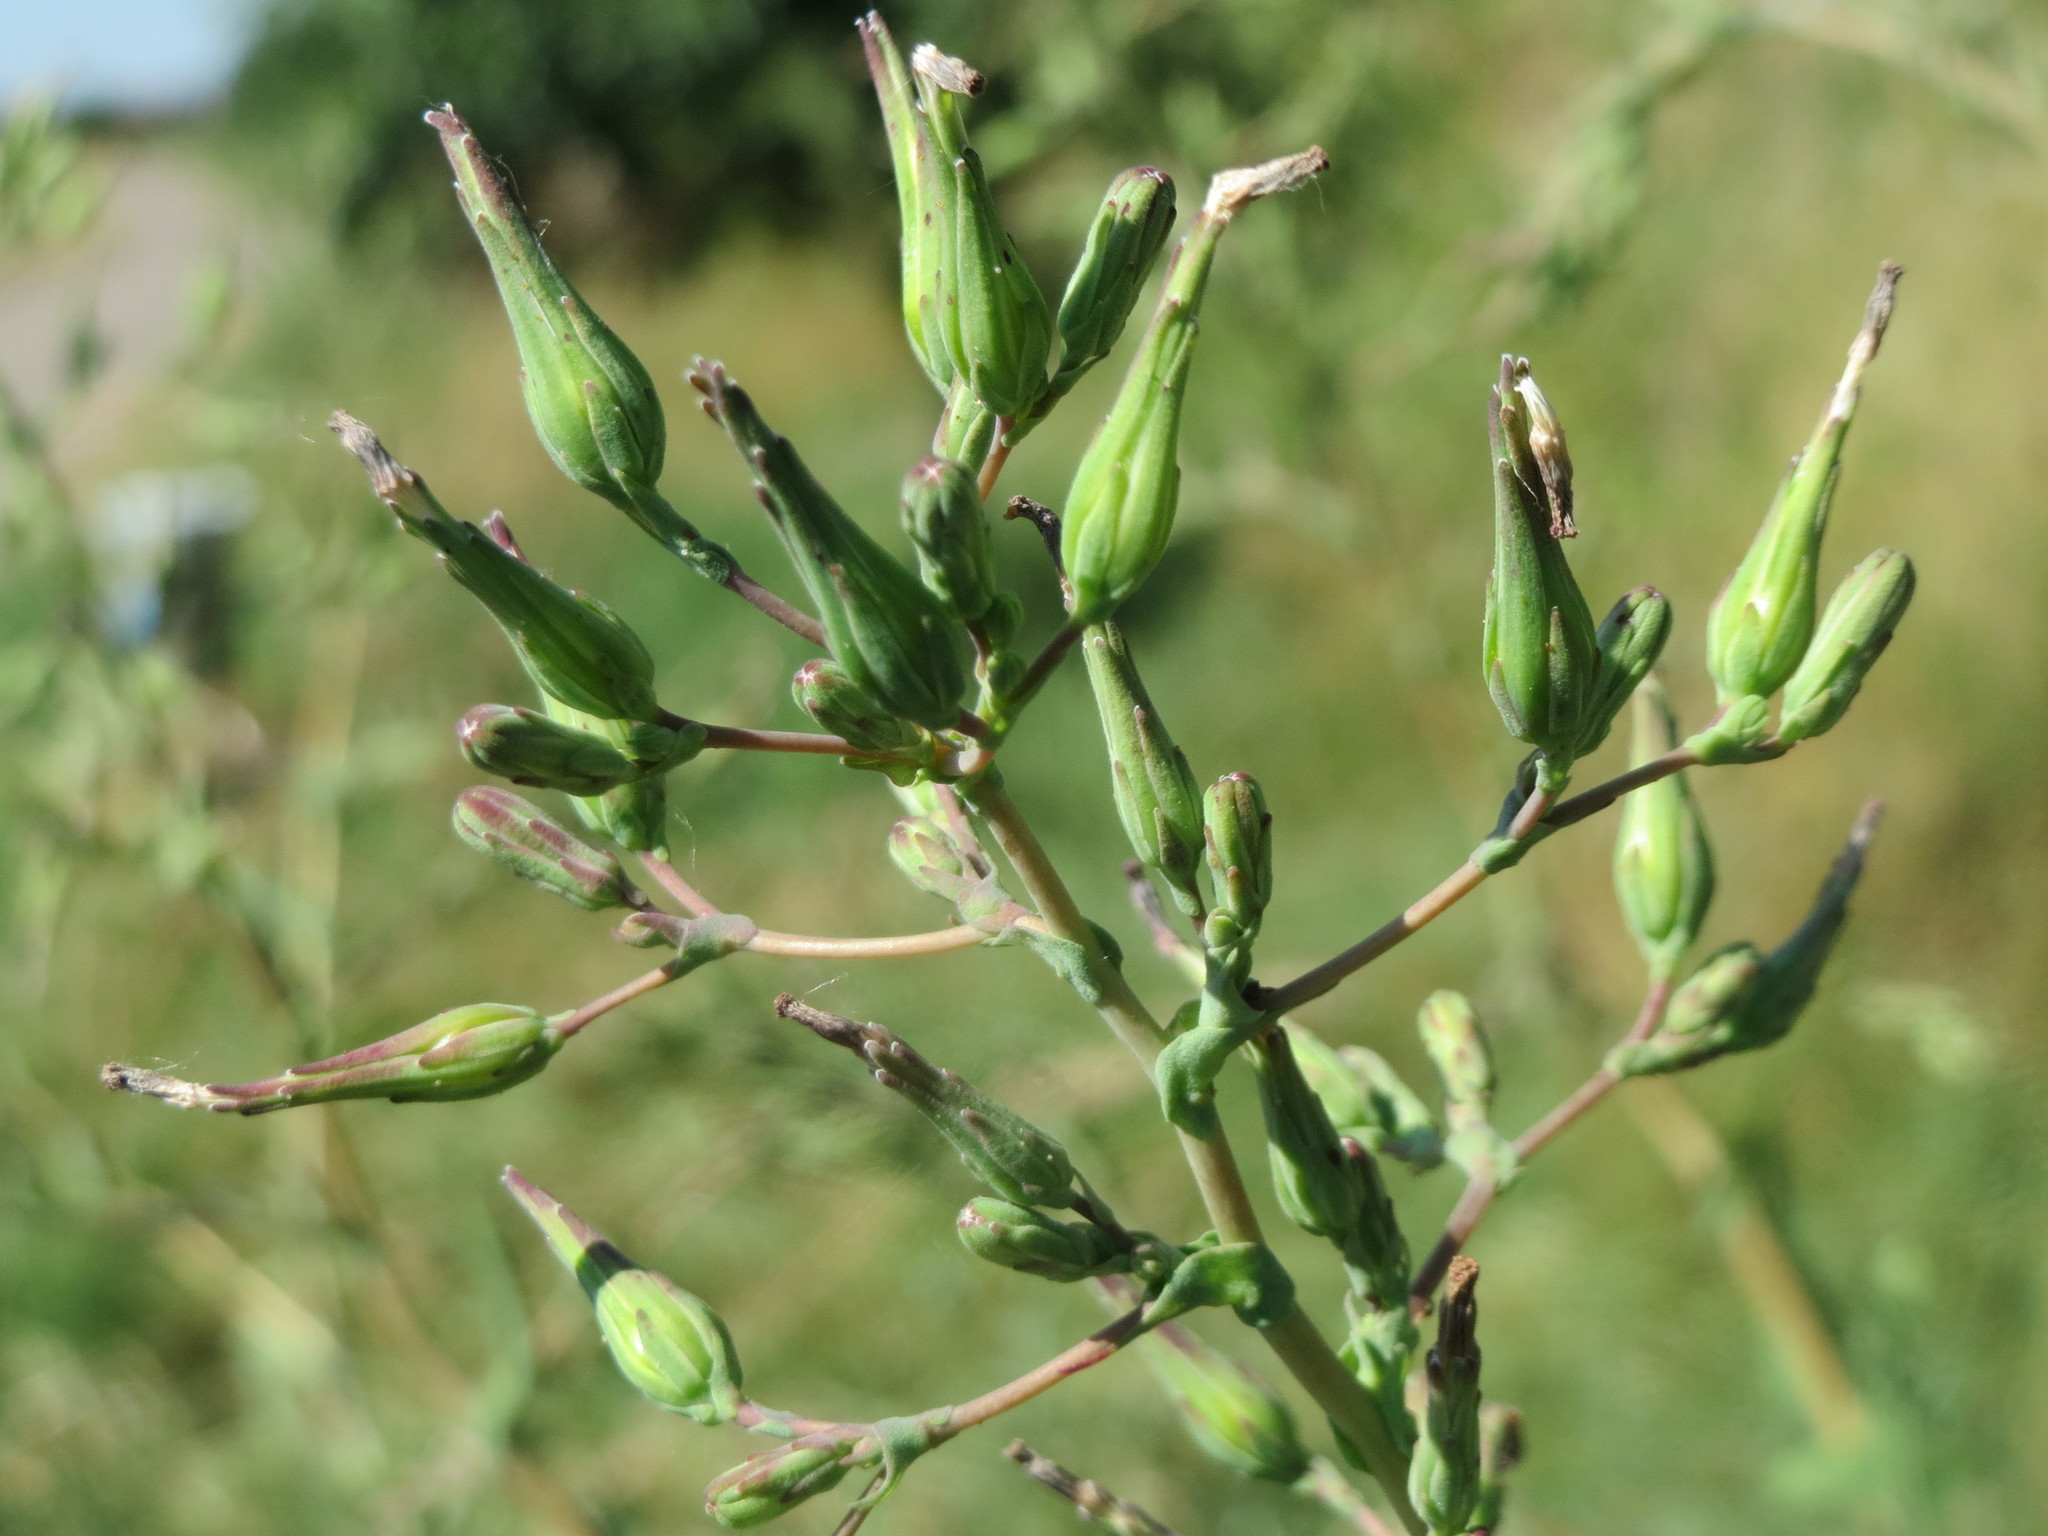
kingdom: Plantae
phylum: Tracheophyta
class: Magnoliopsida
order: Asterales
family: Asteraceae
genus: Lactuca
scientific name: Lactuca serriola
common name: Prickly lettuce
